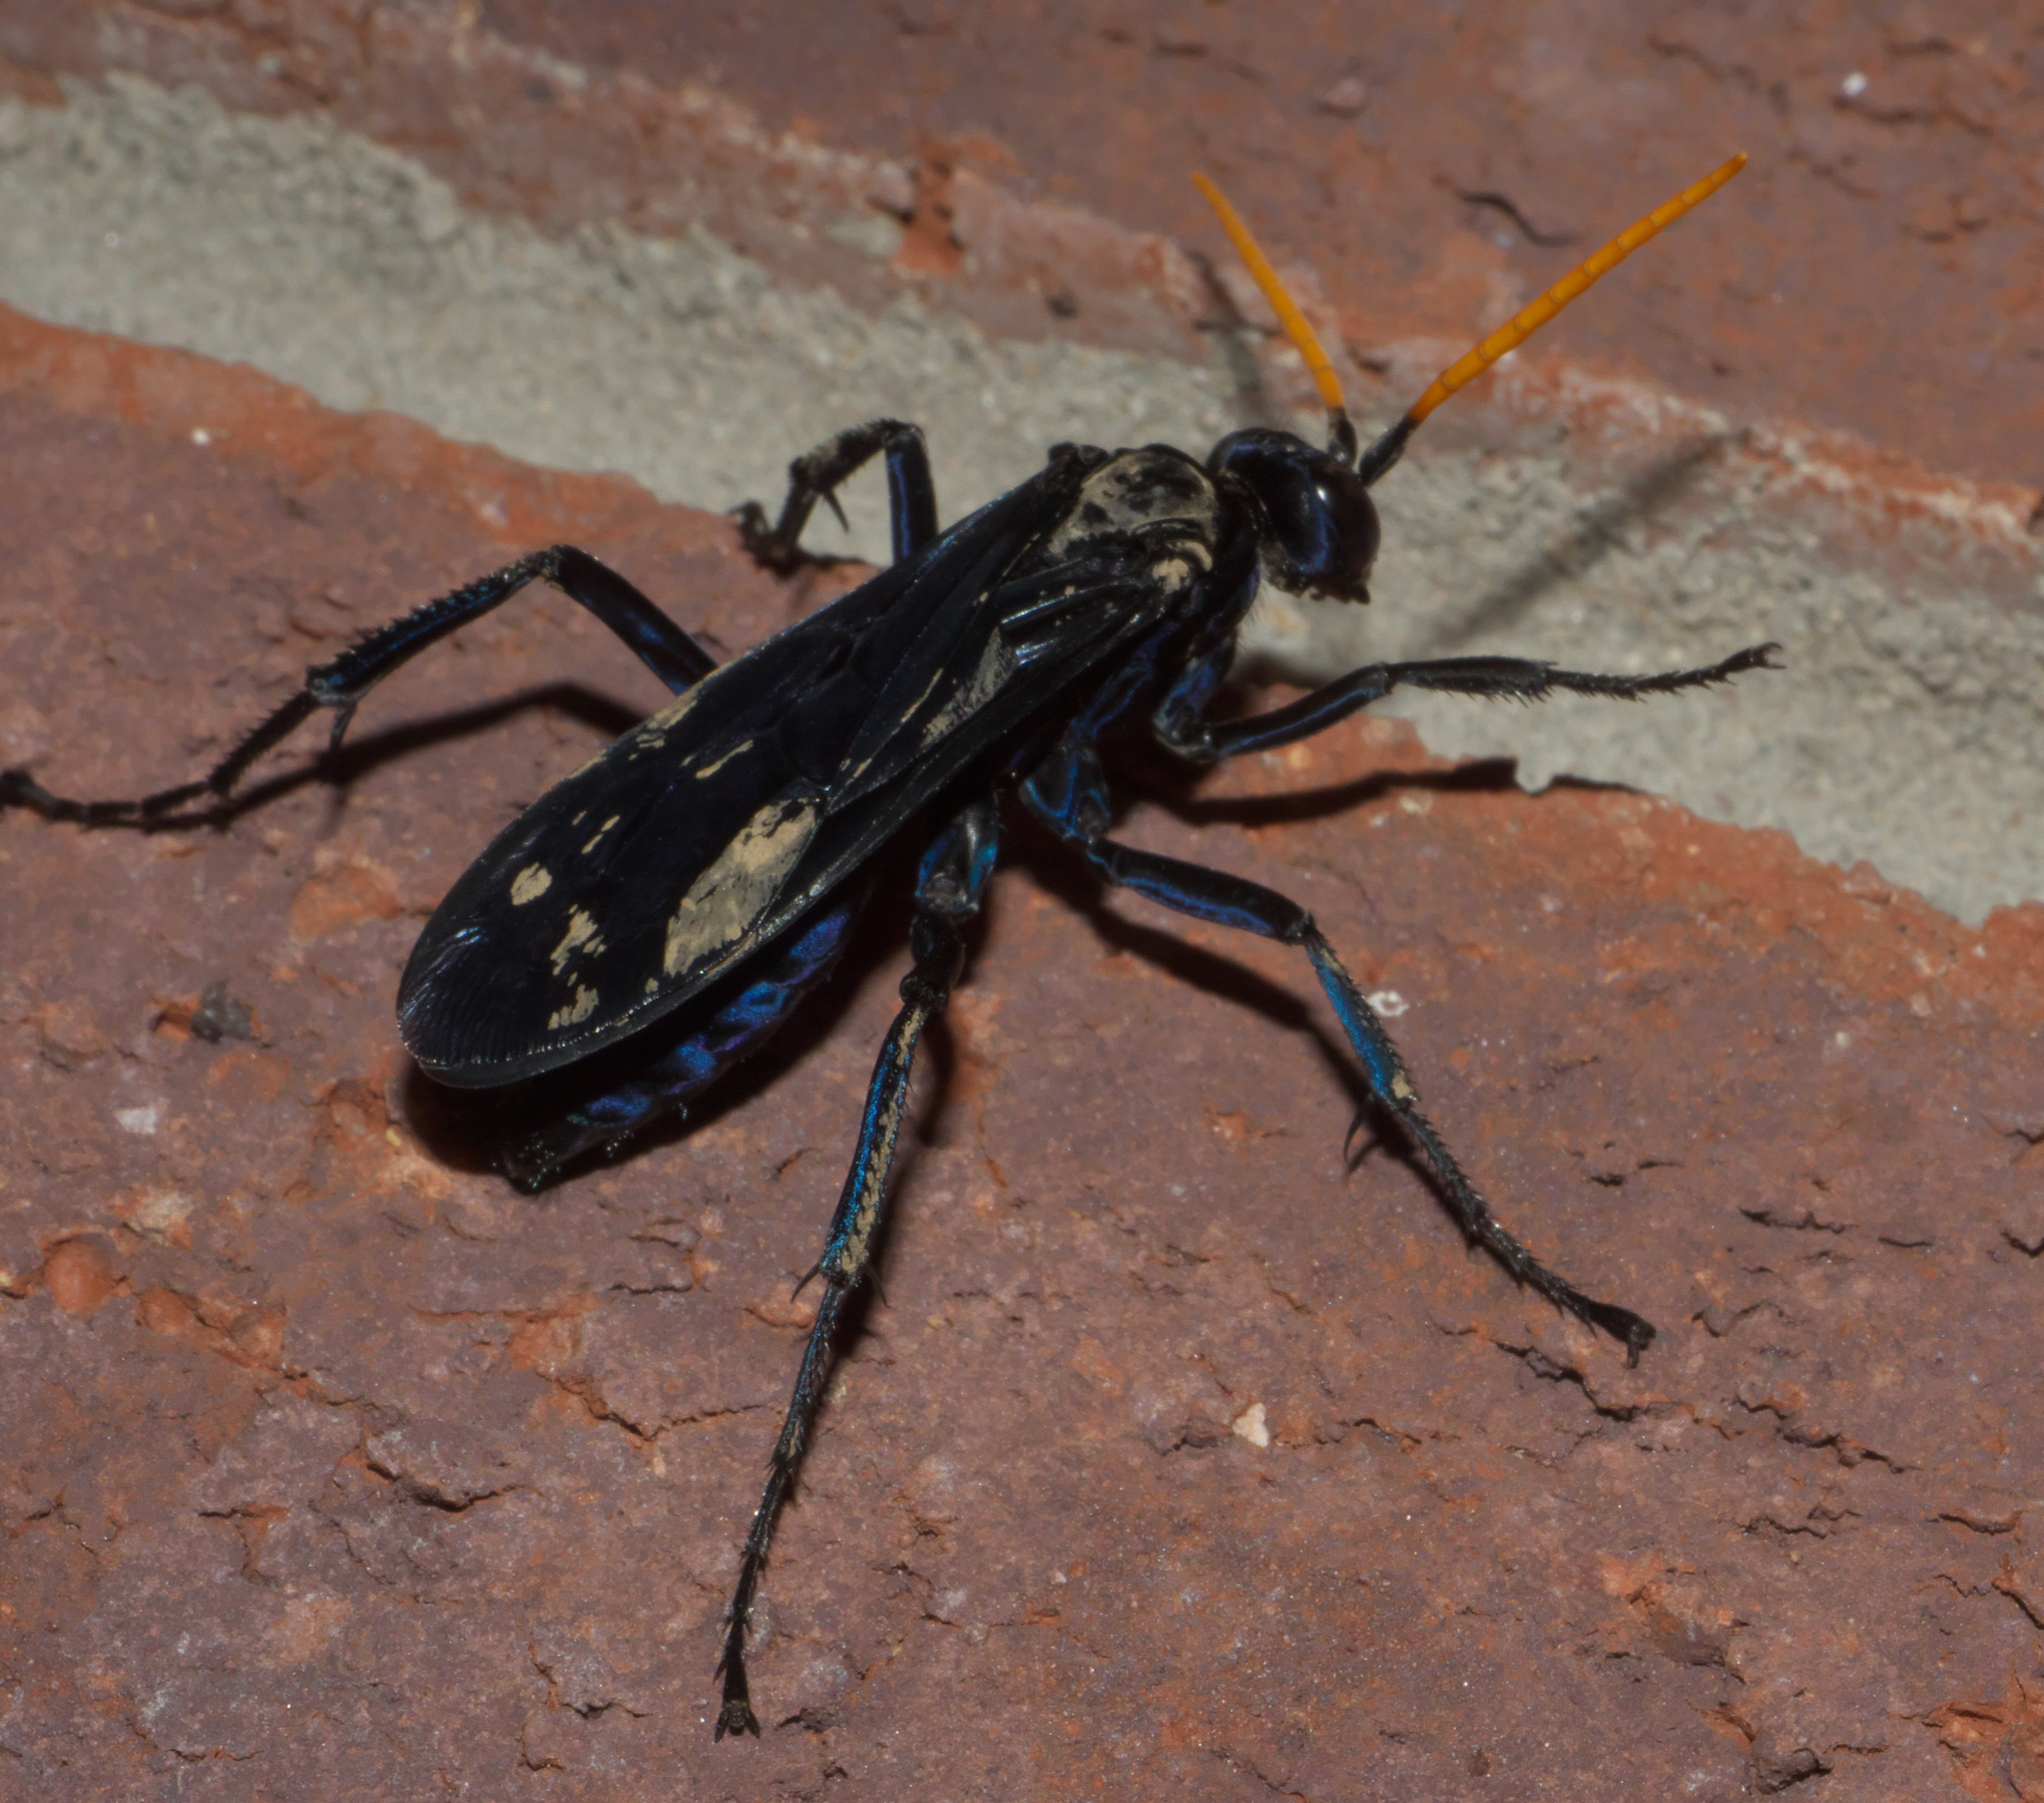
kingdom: Animalia
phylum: Arthropoda
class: Insecta
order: Hymenoptera
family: Pompilidae
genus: Pepsis
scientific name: Pepsis menechma
